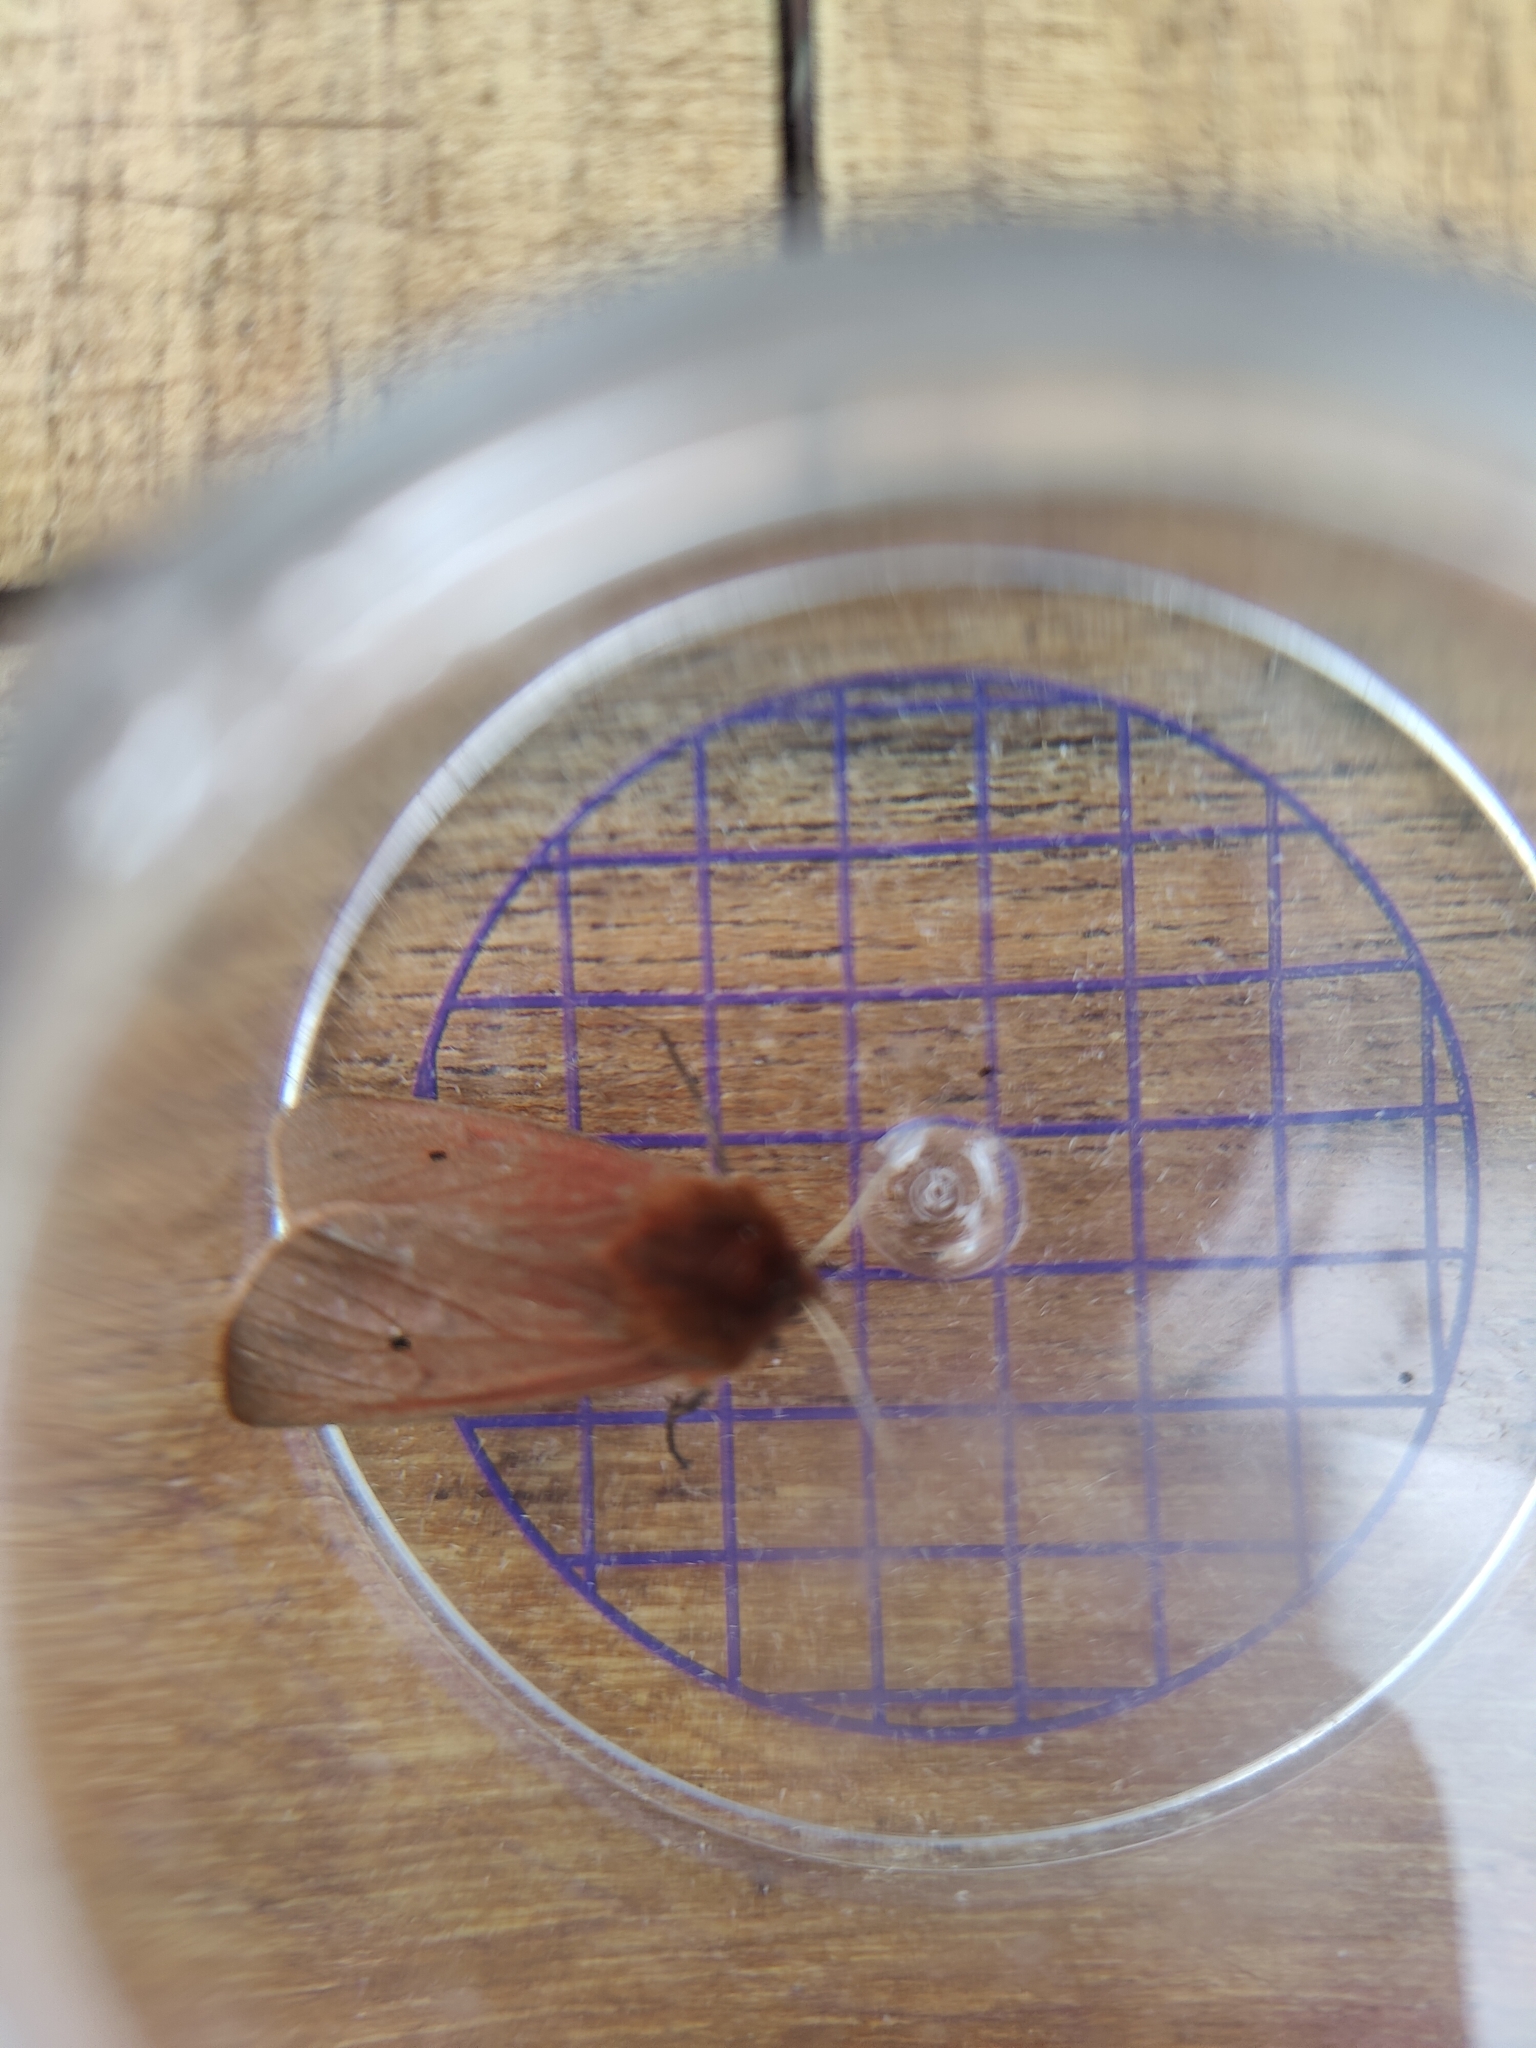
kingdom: Animalia
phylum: Arthropoda
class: Insecta
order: Lepidoptera
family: Erebidae
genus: Phragmatobia
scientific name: Phragmatobia fuliginosa
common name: Ruby tiger
